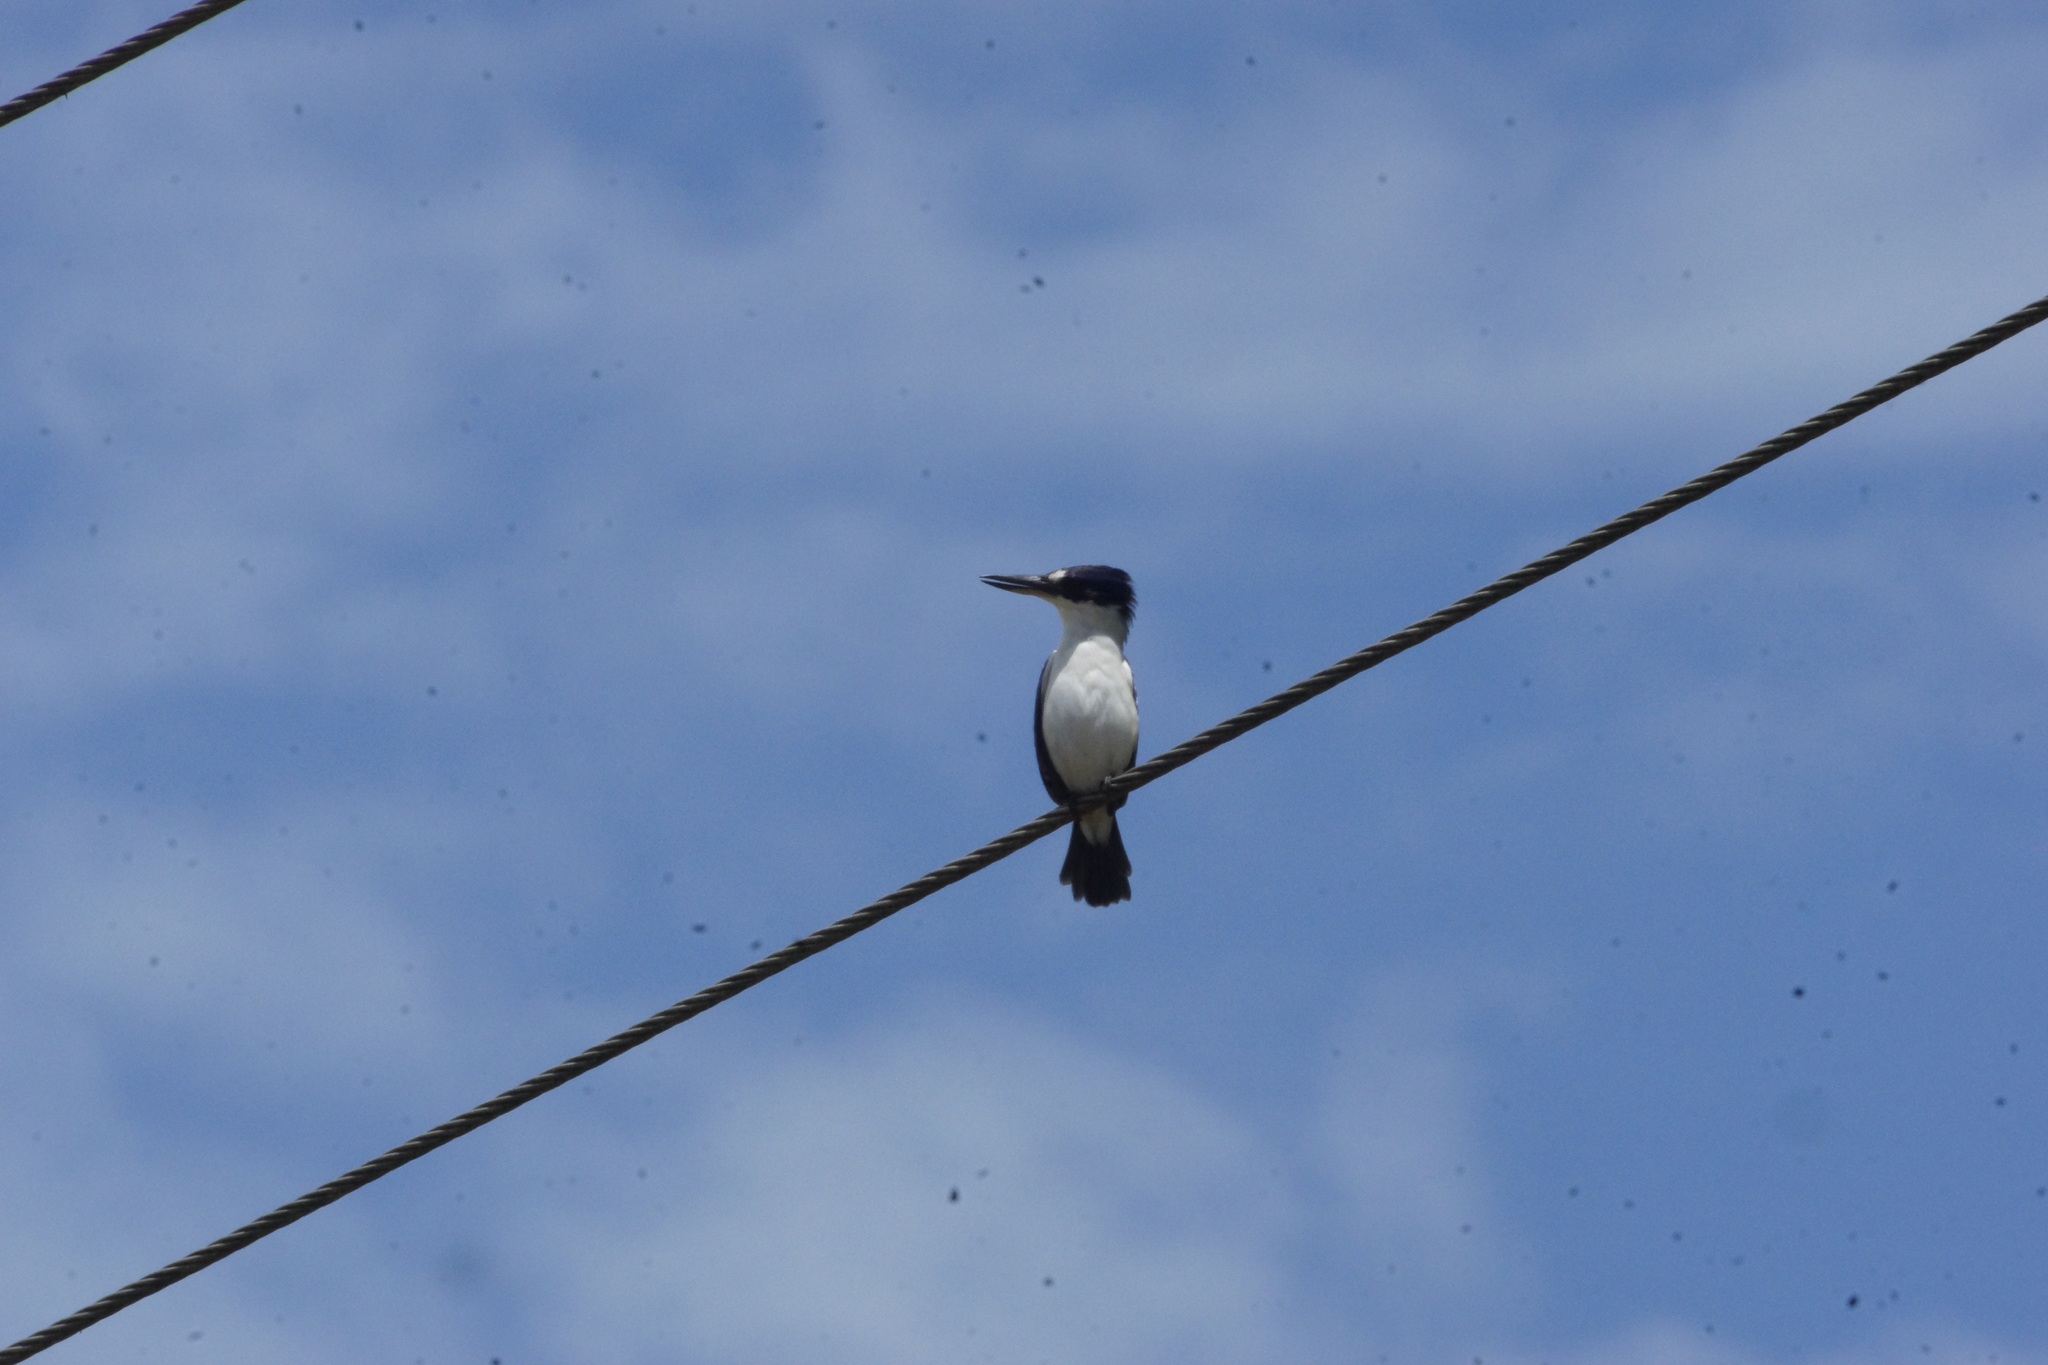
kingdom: Animalia
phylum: Chordata
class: Aves
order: Coraciiformes
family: Alcedinidae
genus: Todiramphus
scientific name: Todiramphus macleayii
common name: Forest kingfisher
